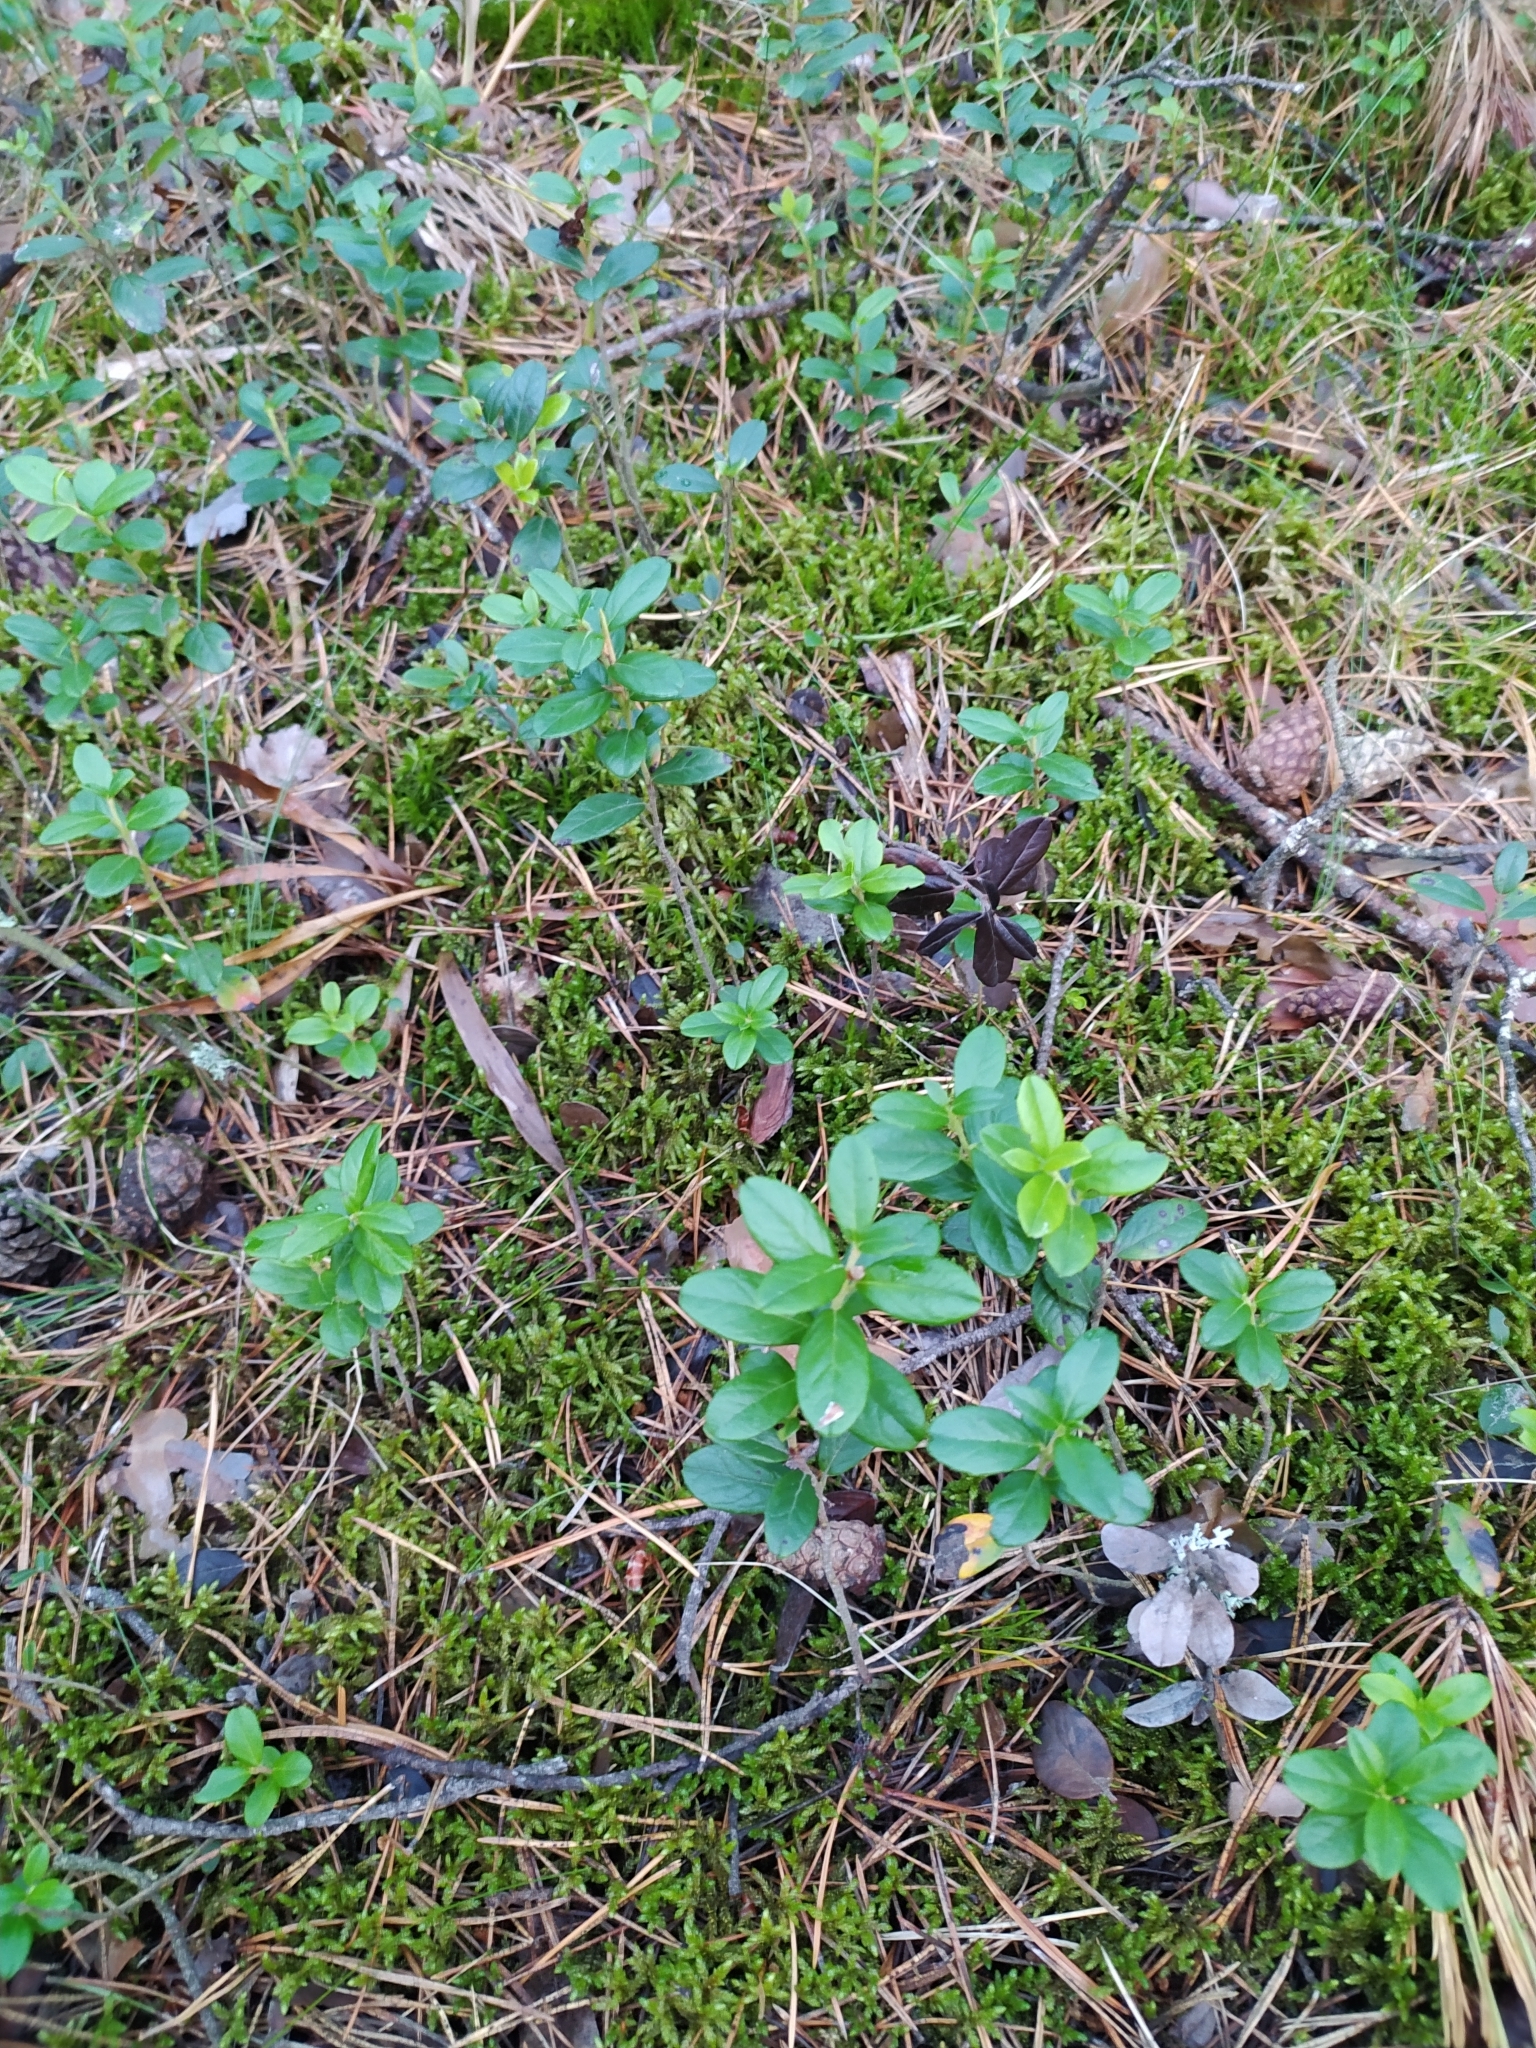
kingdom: Plantae
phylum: Tracheophyta
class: Magnoliopsida
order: Ericales
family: Ericaceae
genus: Vaccinium
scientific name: Vaccinium vitis-idaea
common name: Cowberry
